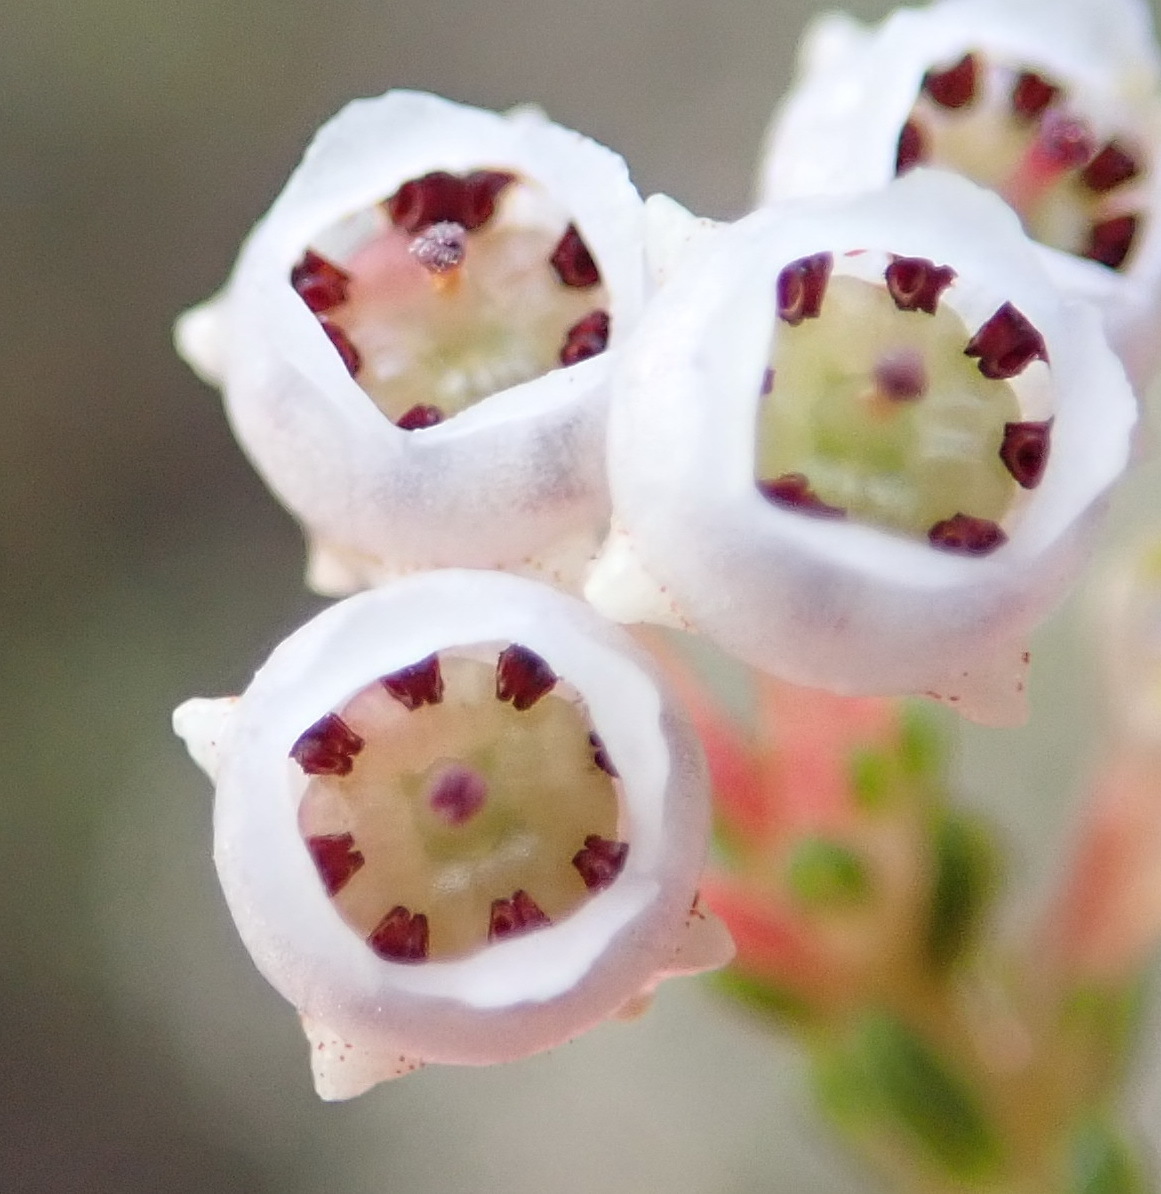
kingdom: Plantae
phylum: Tracheophyta
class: Magnoliopsida
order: Ericales
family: Ericaceae
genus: Erica
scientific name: Erica spectabilis
